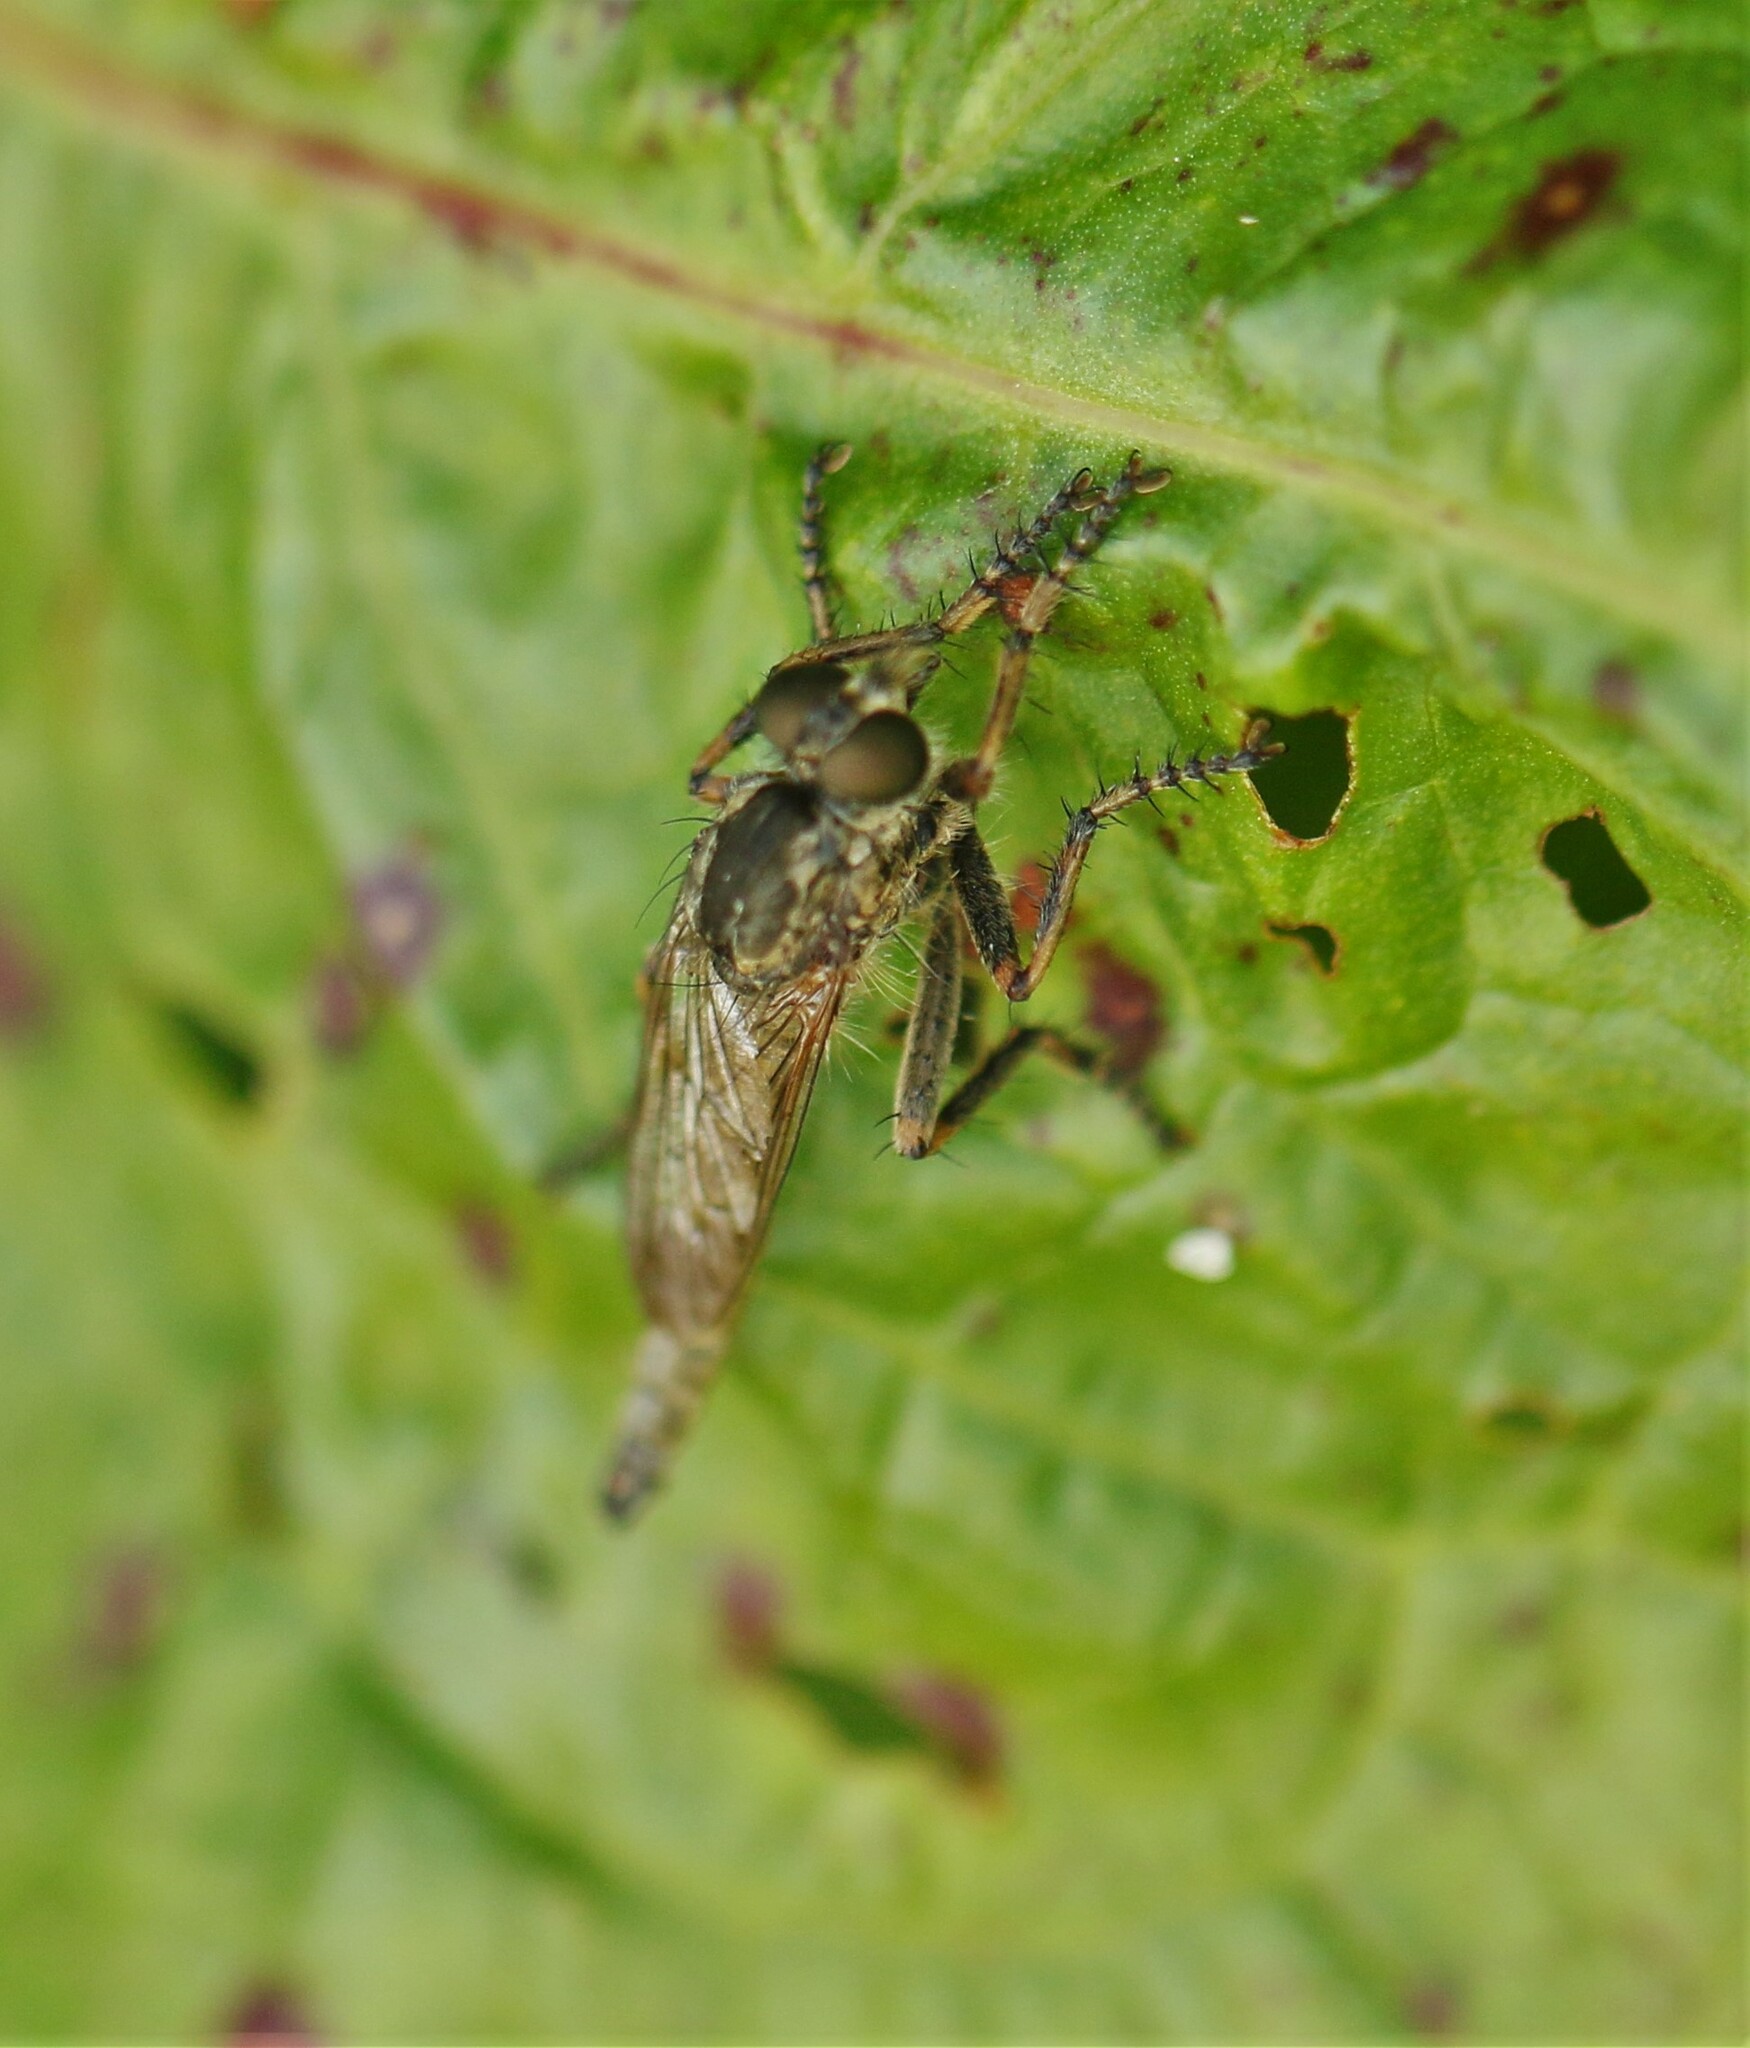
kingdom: Animalia
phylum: Arthropoda
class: Insecta
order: Diptera
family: Asilidae
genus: Machimus
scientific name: Machimus snowii
